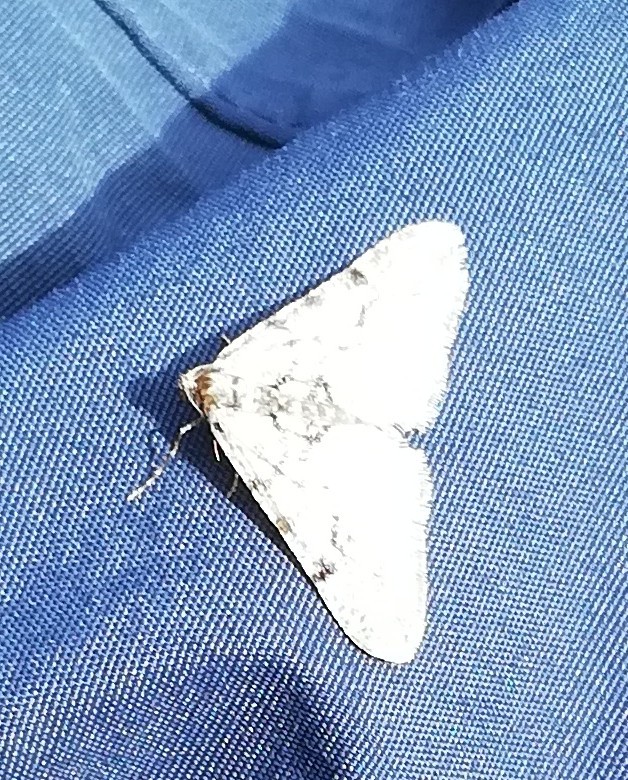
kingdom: Animalia
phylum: Arthropoda
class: Insecta
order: Lepidoptera
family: Geometridae
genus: Agriopis
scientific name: Agriopis leucophaearia
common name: Spring usher
